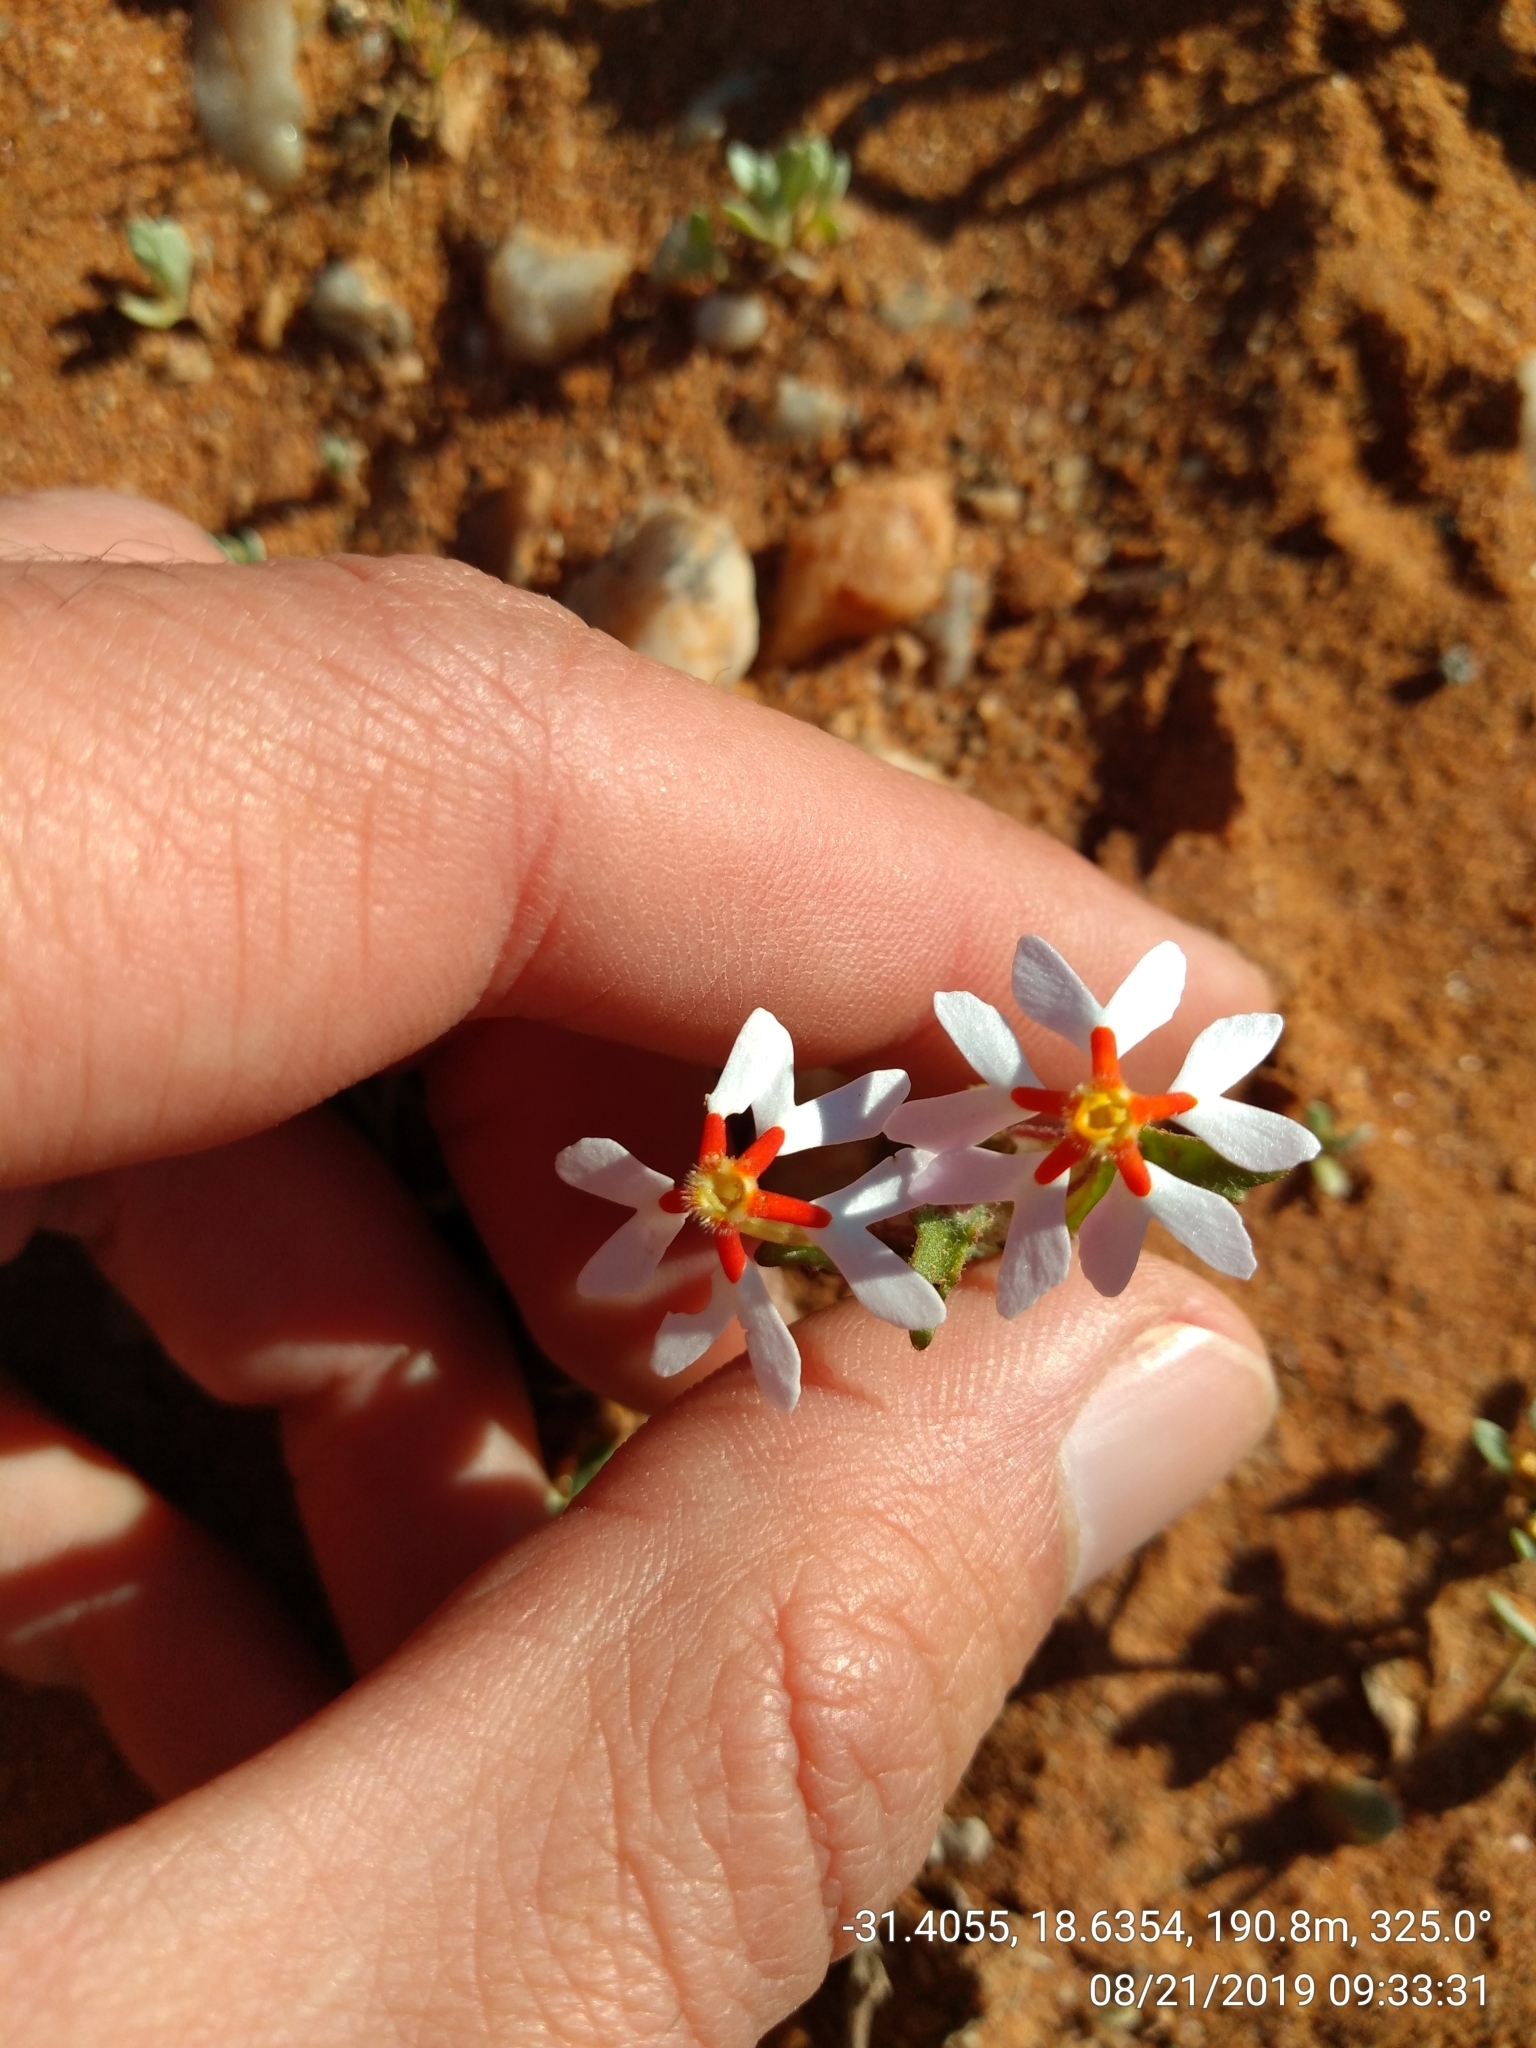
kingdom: Plantae
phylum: Tracheophyta
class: Magnoliopsida
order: Lamiales
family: Scrophulariaceae
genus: Zaluzianskya
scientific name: Zaluzianskya pumila
